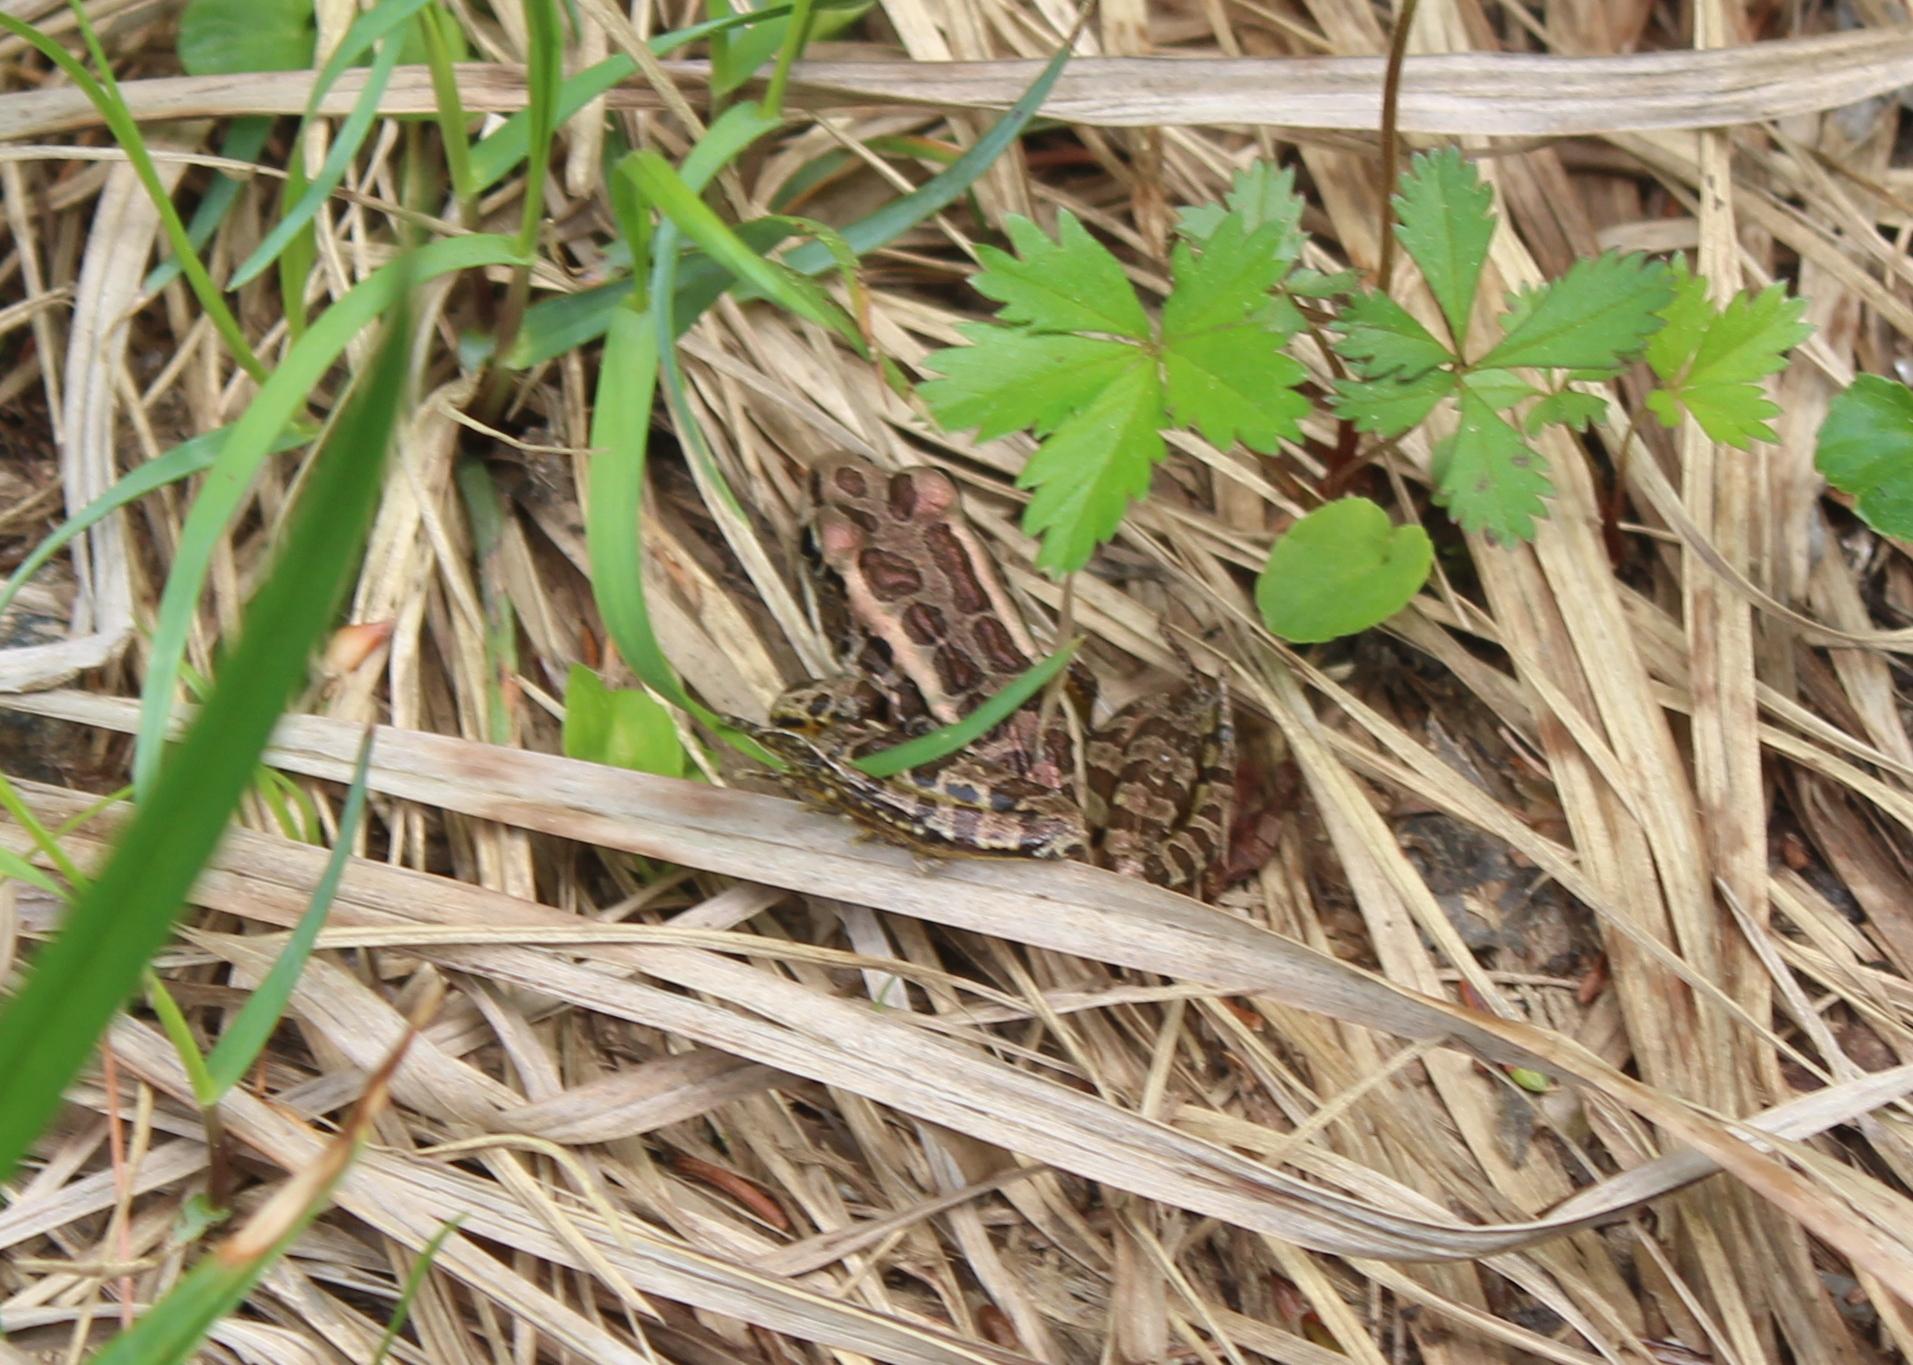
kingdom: Animalia
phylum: Chordata
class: Amphibia
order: Anura
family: Ranidae
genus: Lithobates
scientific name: Lithobates palustris
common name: Pickerel frog
